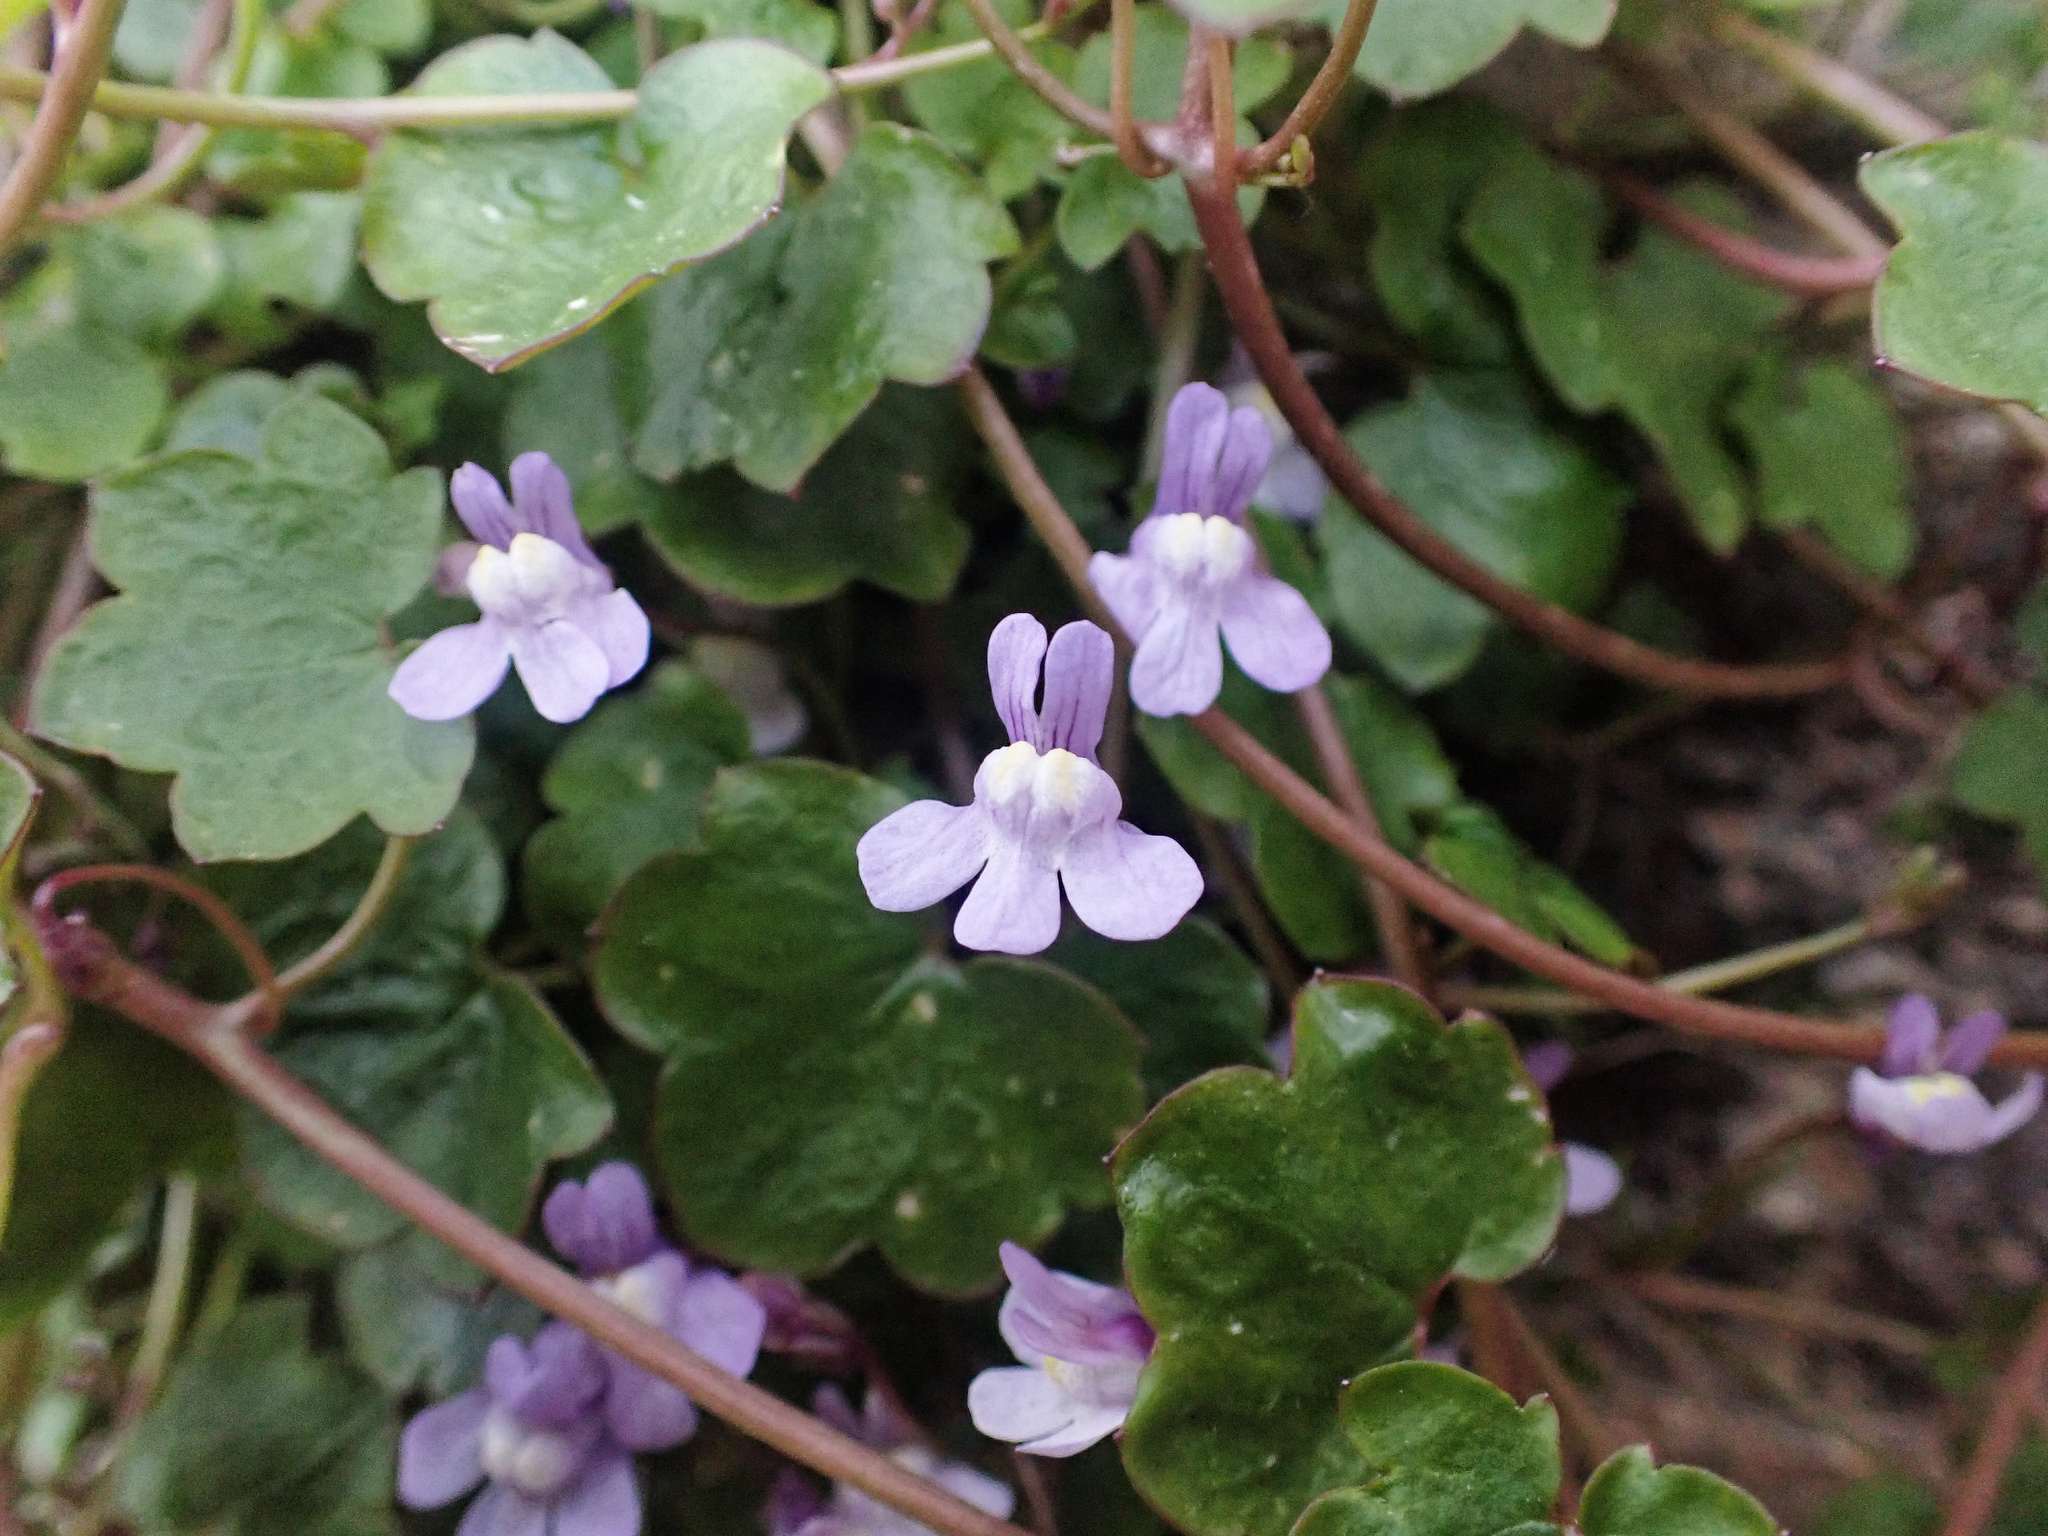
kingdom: Plantae
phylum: Tracheophyta
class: Magnoliopsida
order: Lamiales
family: Plantaginaceae
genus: Cymbalaria
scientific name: Cymbalaria muralis
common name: Ivy-leaved toadflax
